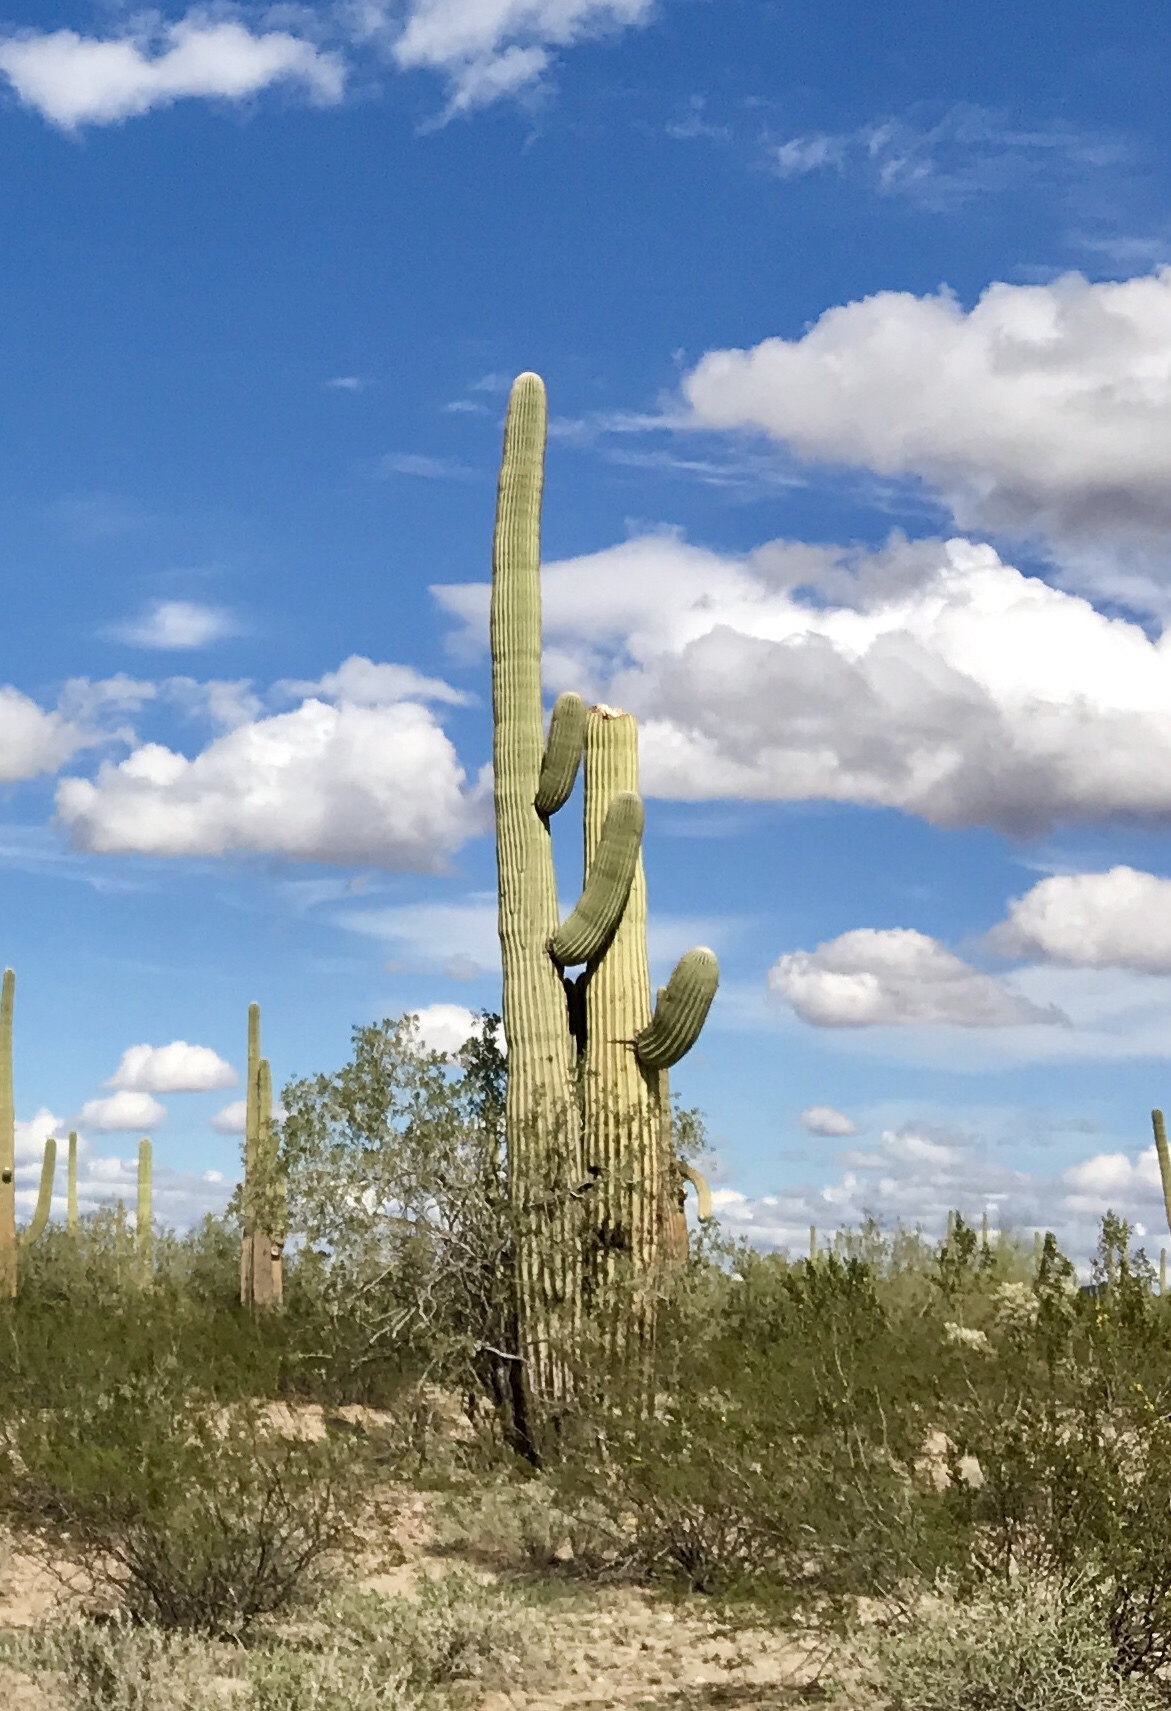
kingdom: Plantae
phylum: Tracheophyta
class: Magnoliopsida
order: Caryophyllales
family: Cactaceae
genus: Carnegiea
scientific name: Carnegiea gigantea
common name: Saguaro
